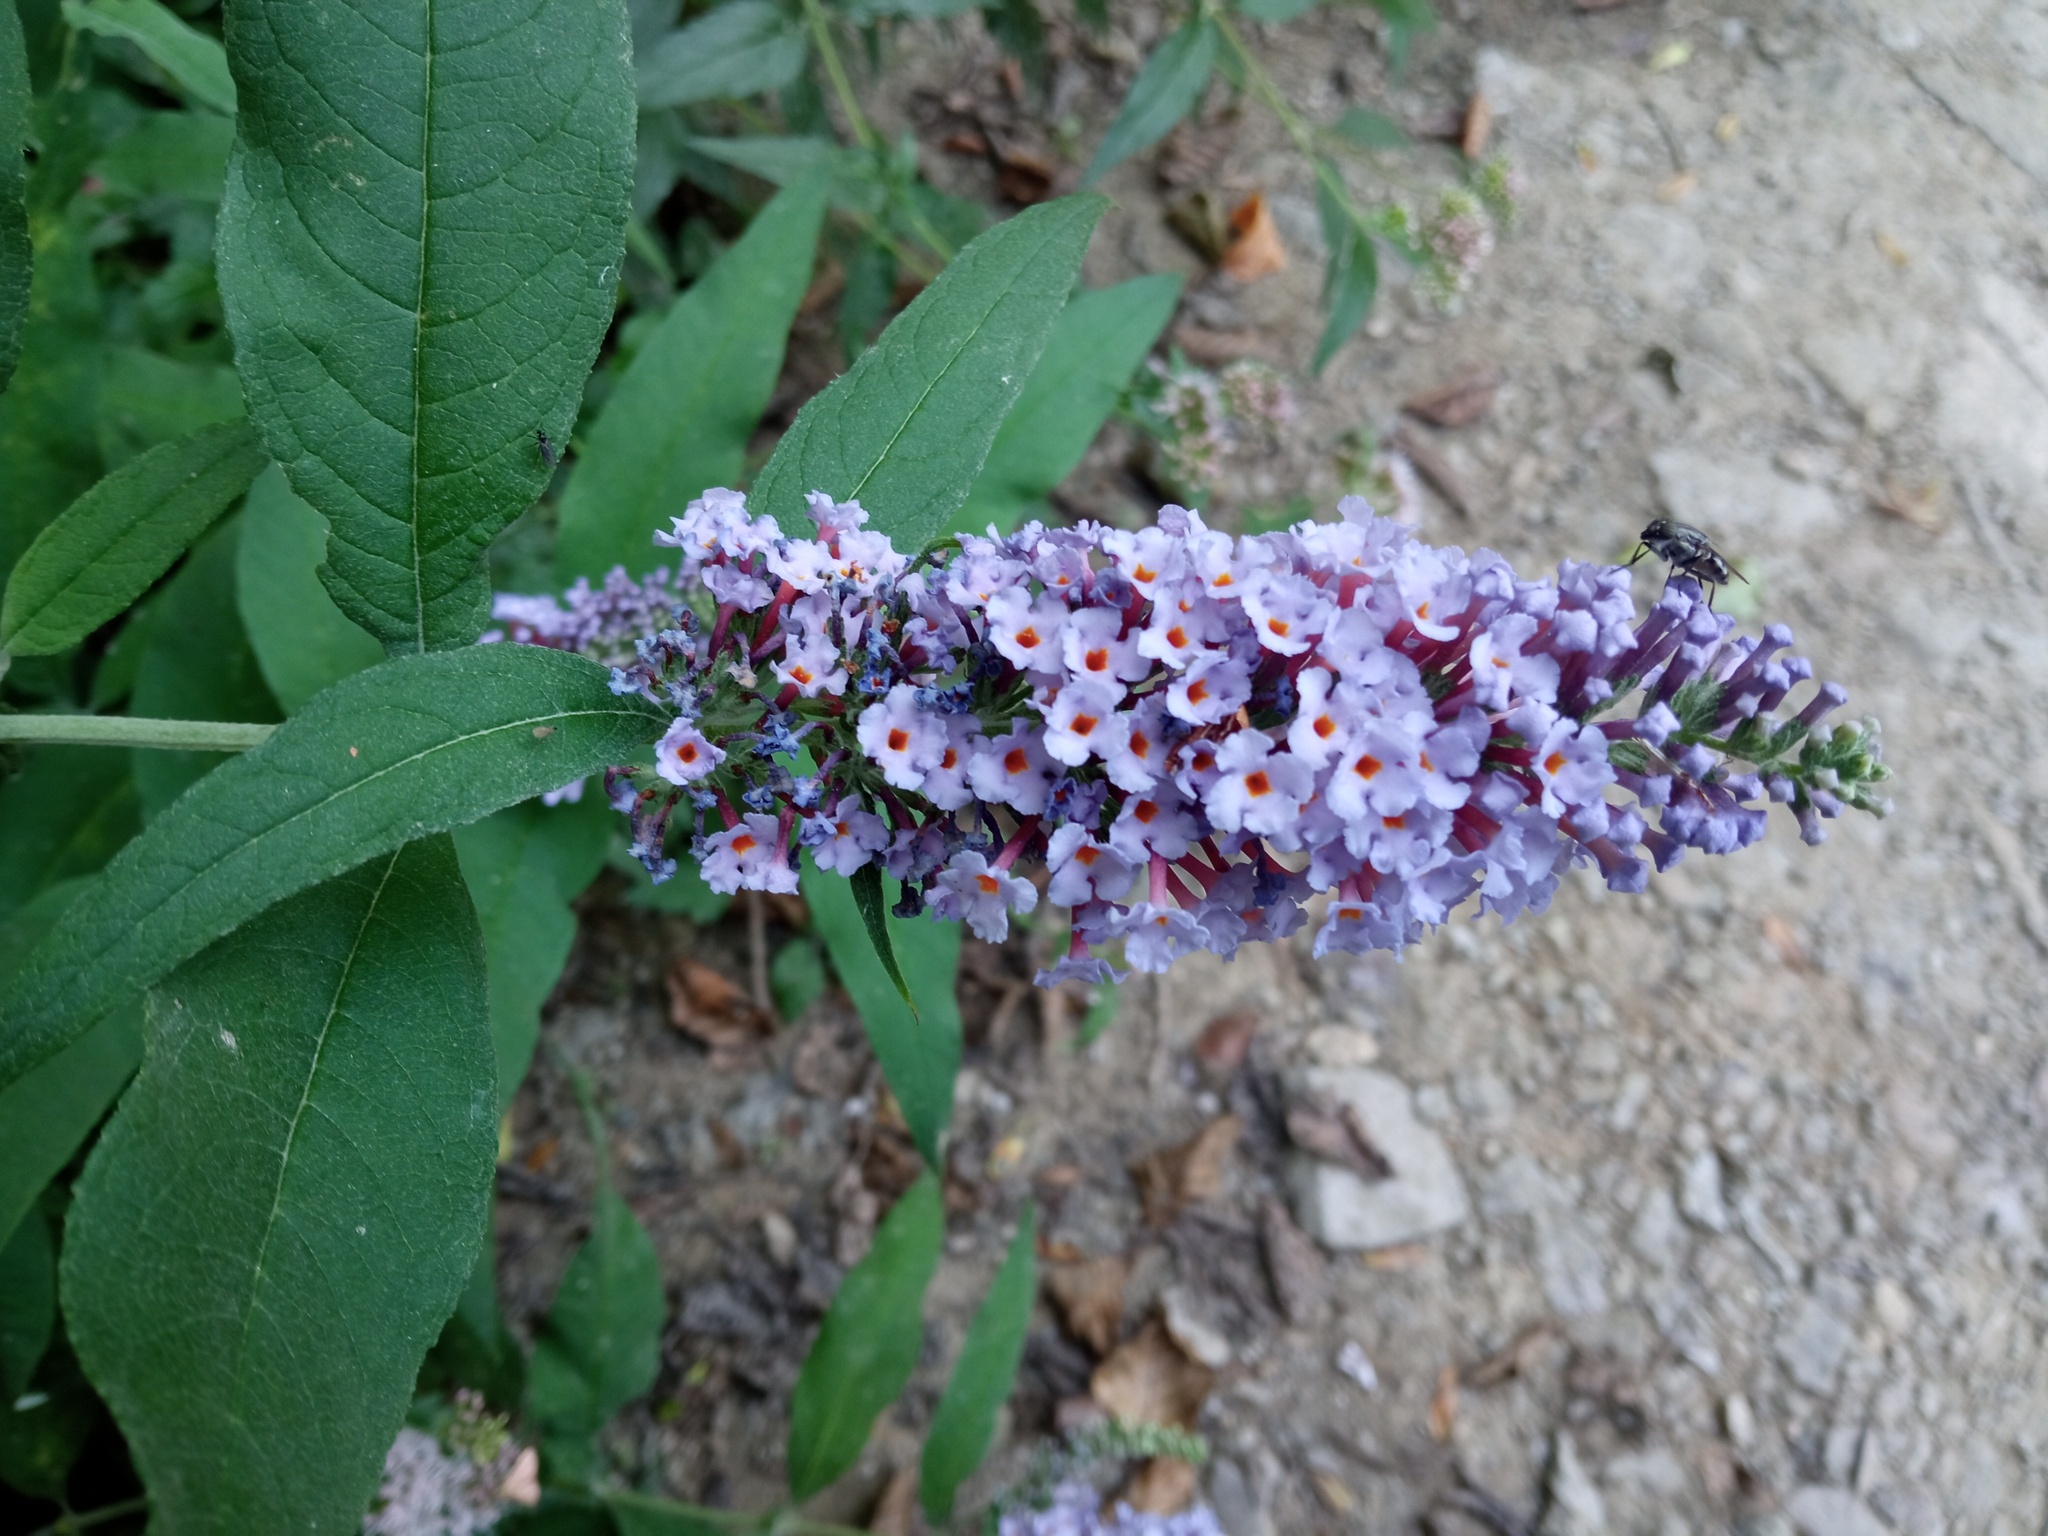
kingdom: Plantae
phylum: Tracheophyta
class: Magnoliopsida
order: Lamiales
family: Scrophulariaceae
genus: Buddleja
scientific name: Buddleja davidii
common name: Butterfly-bush
